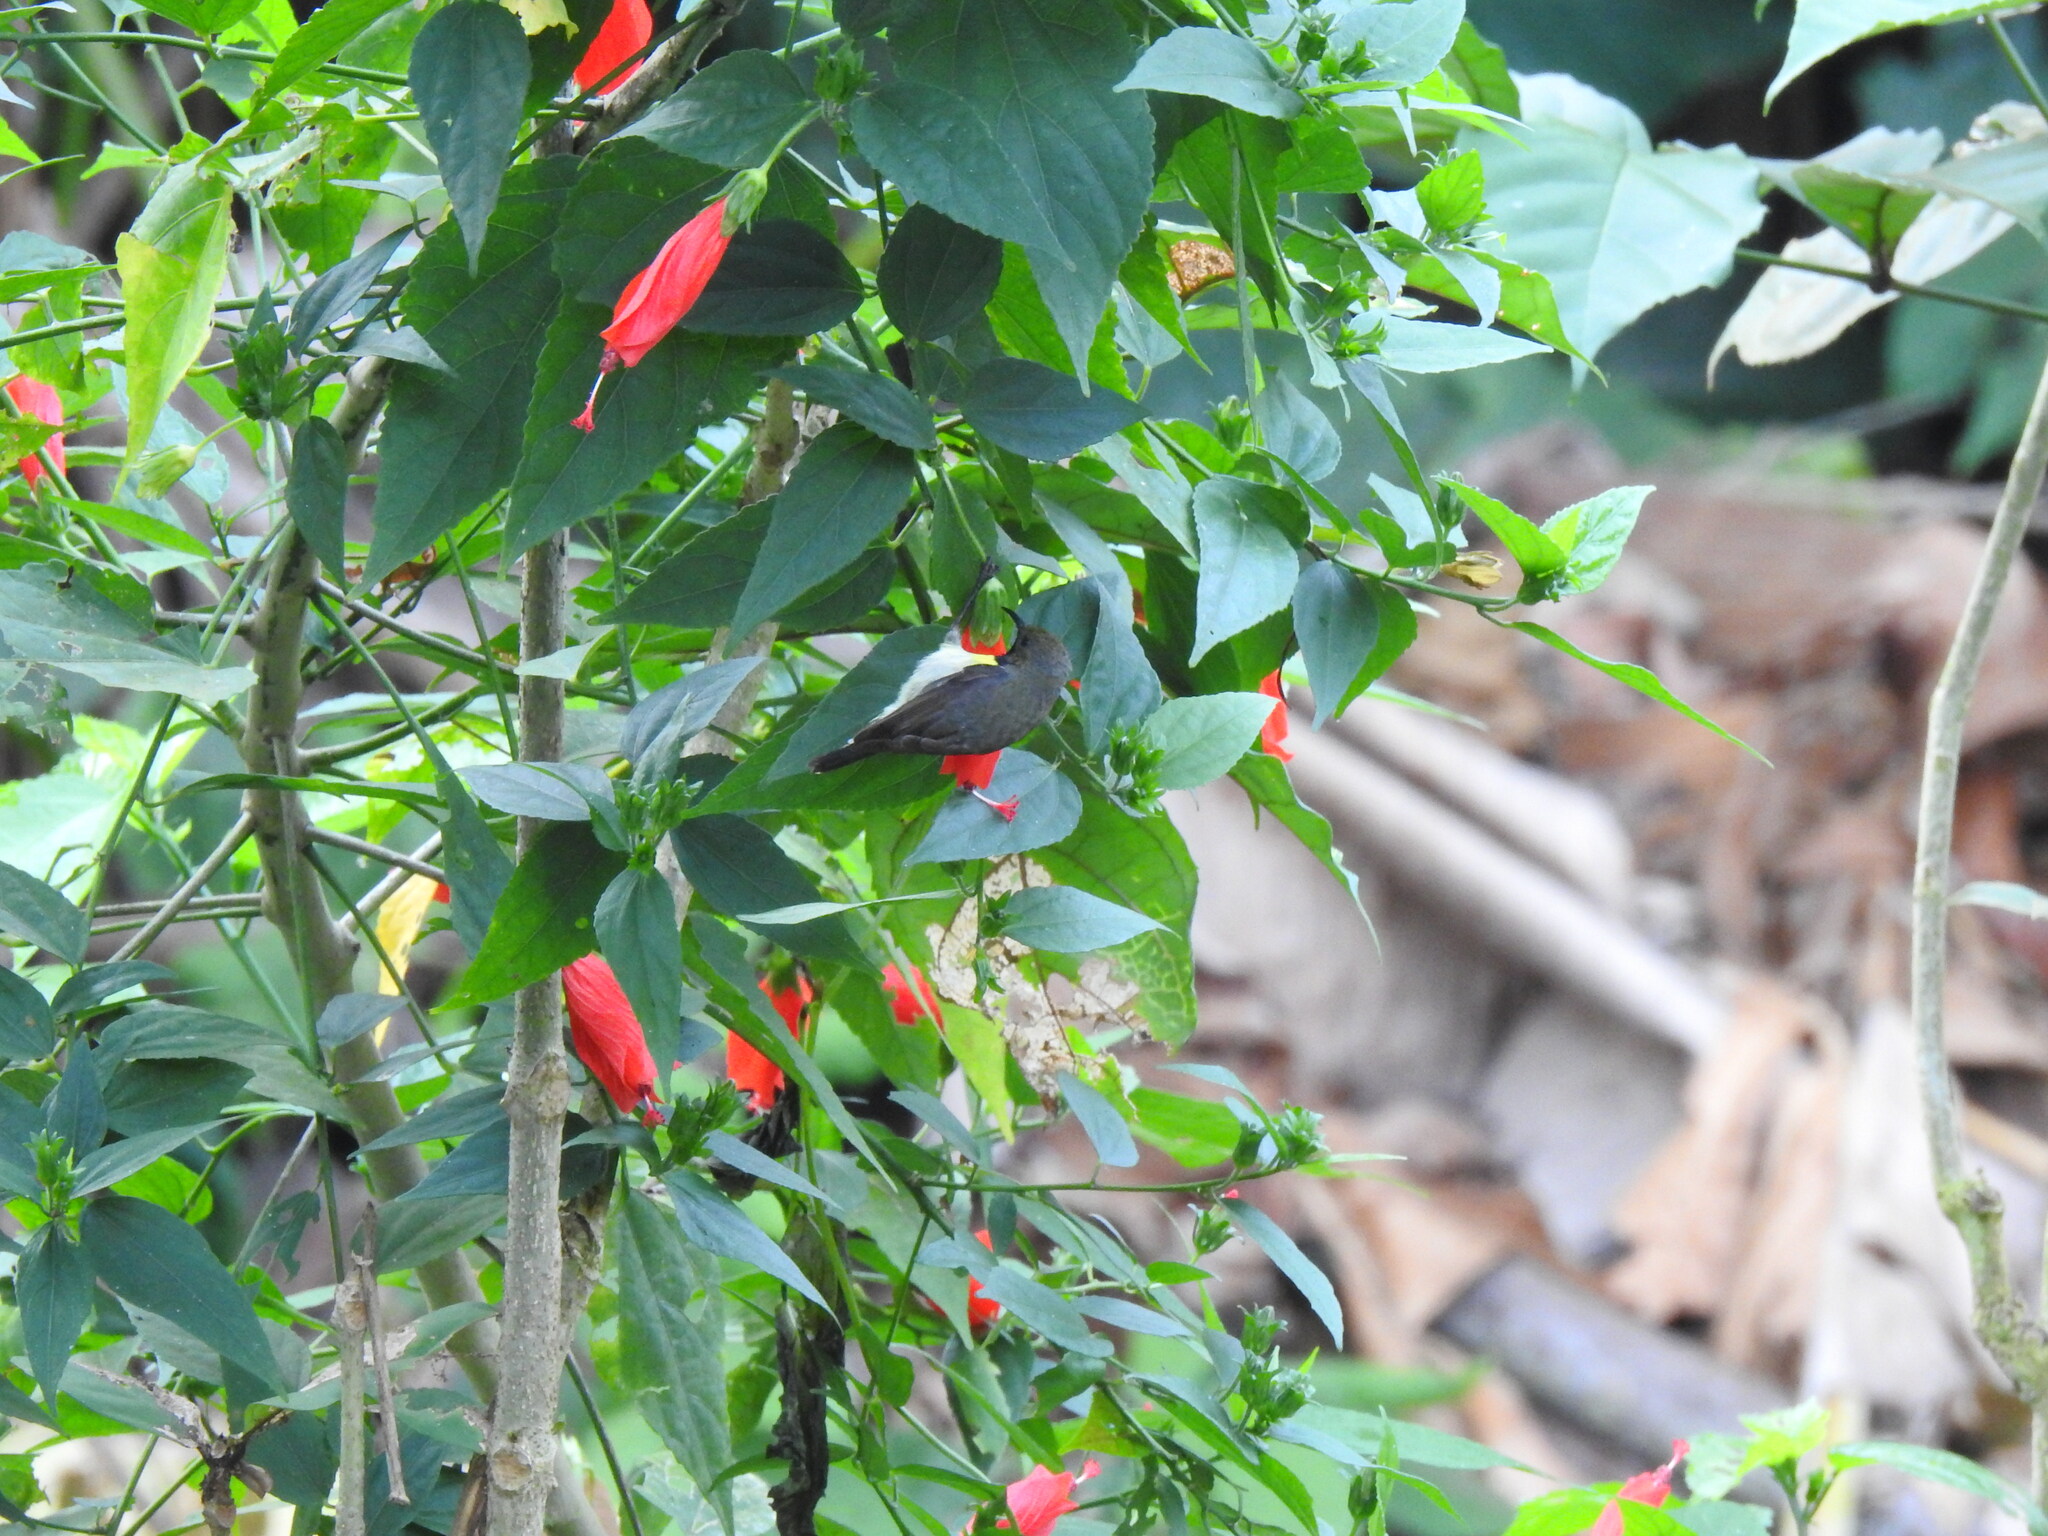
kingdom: Animalia
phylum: Chordata
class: Aves
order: Passeriformes
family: Nectariniidae
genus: Anabathmis
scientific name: Anabathmis newtonii
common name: Newton's sunbird
